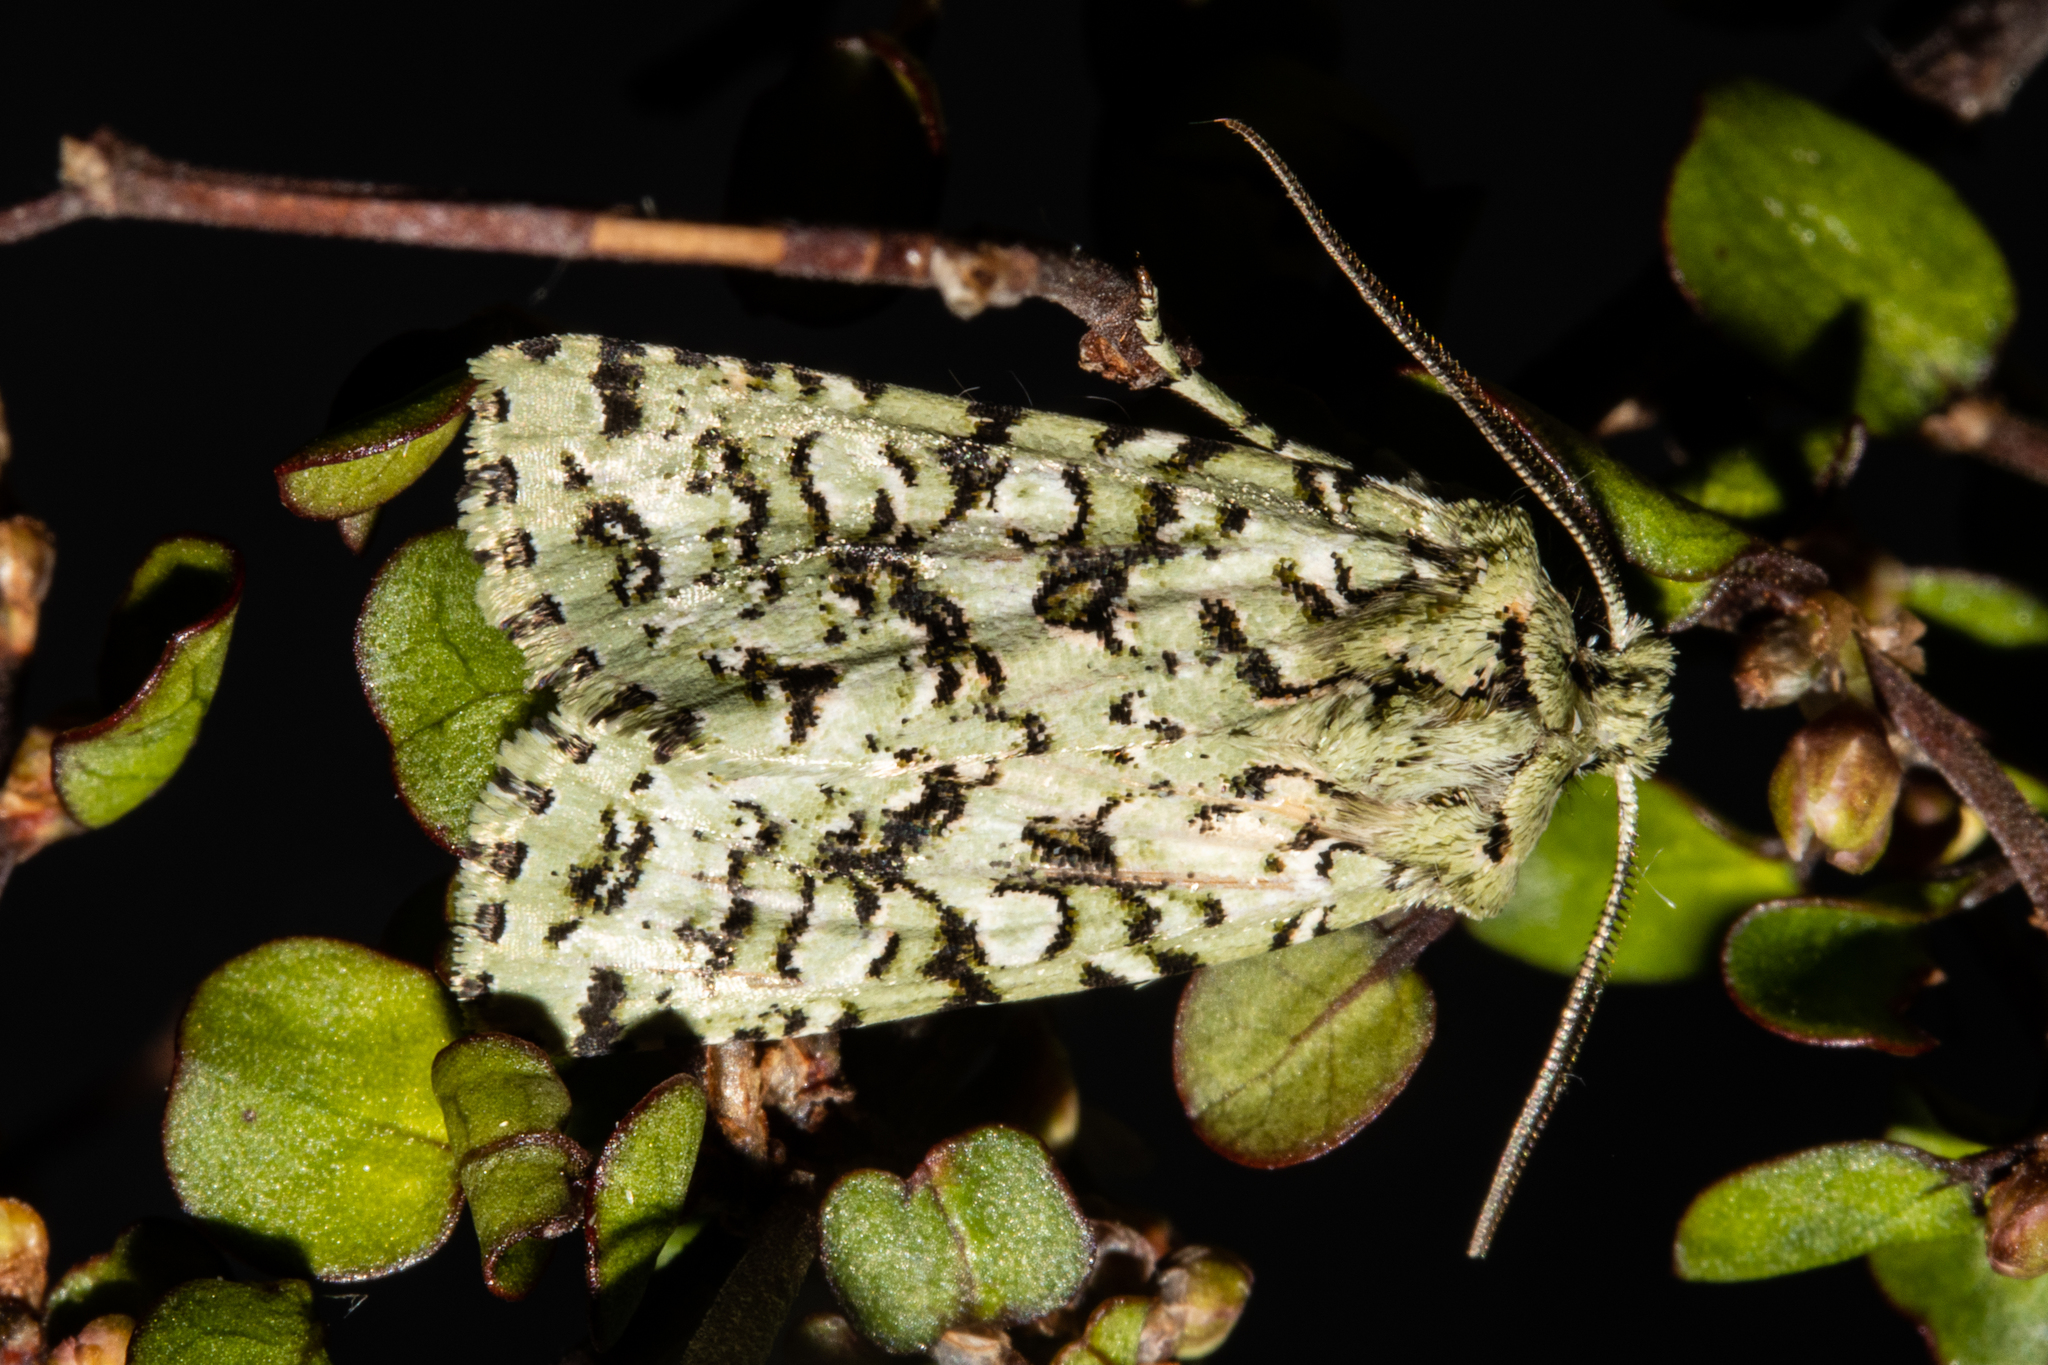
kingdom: Animalia
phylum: Arthropoda
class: Insecta
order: Lepidoptera
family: Noctuidae
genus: Meterana
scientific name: Meterana
